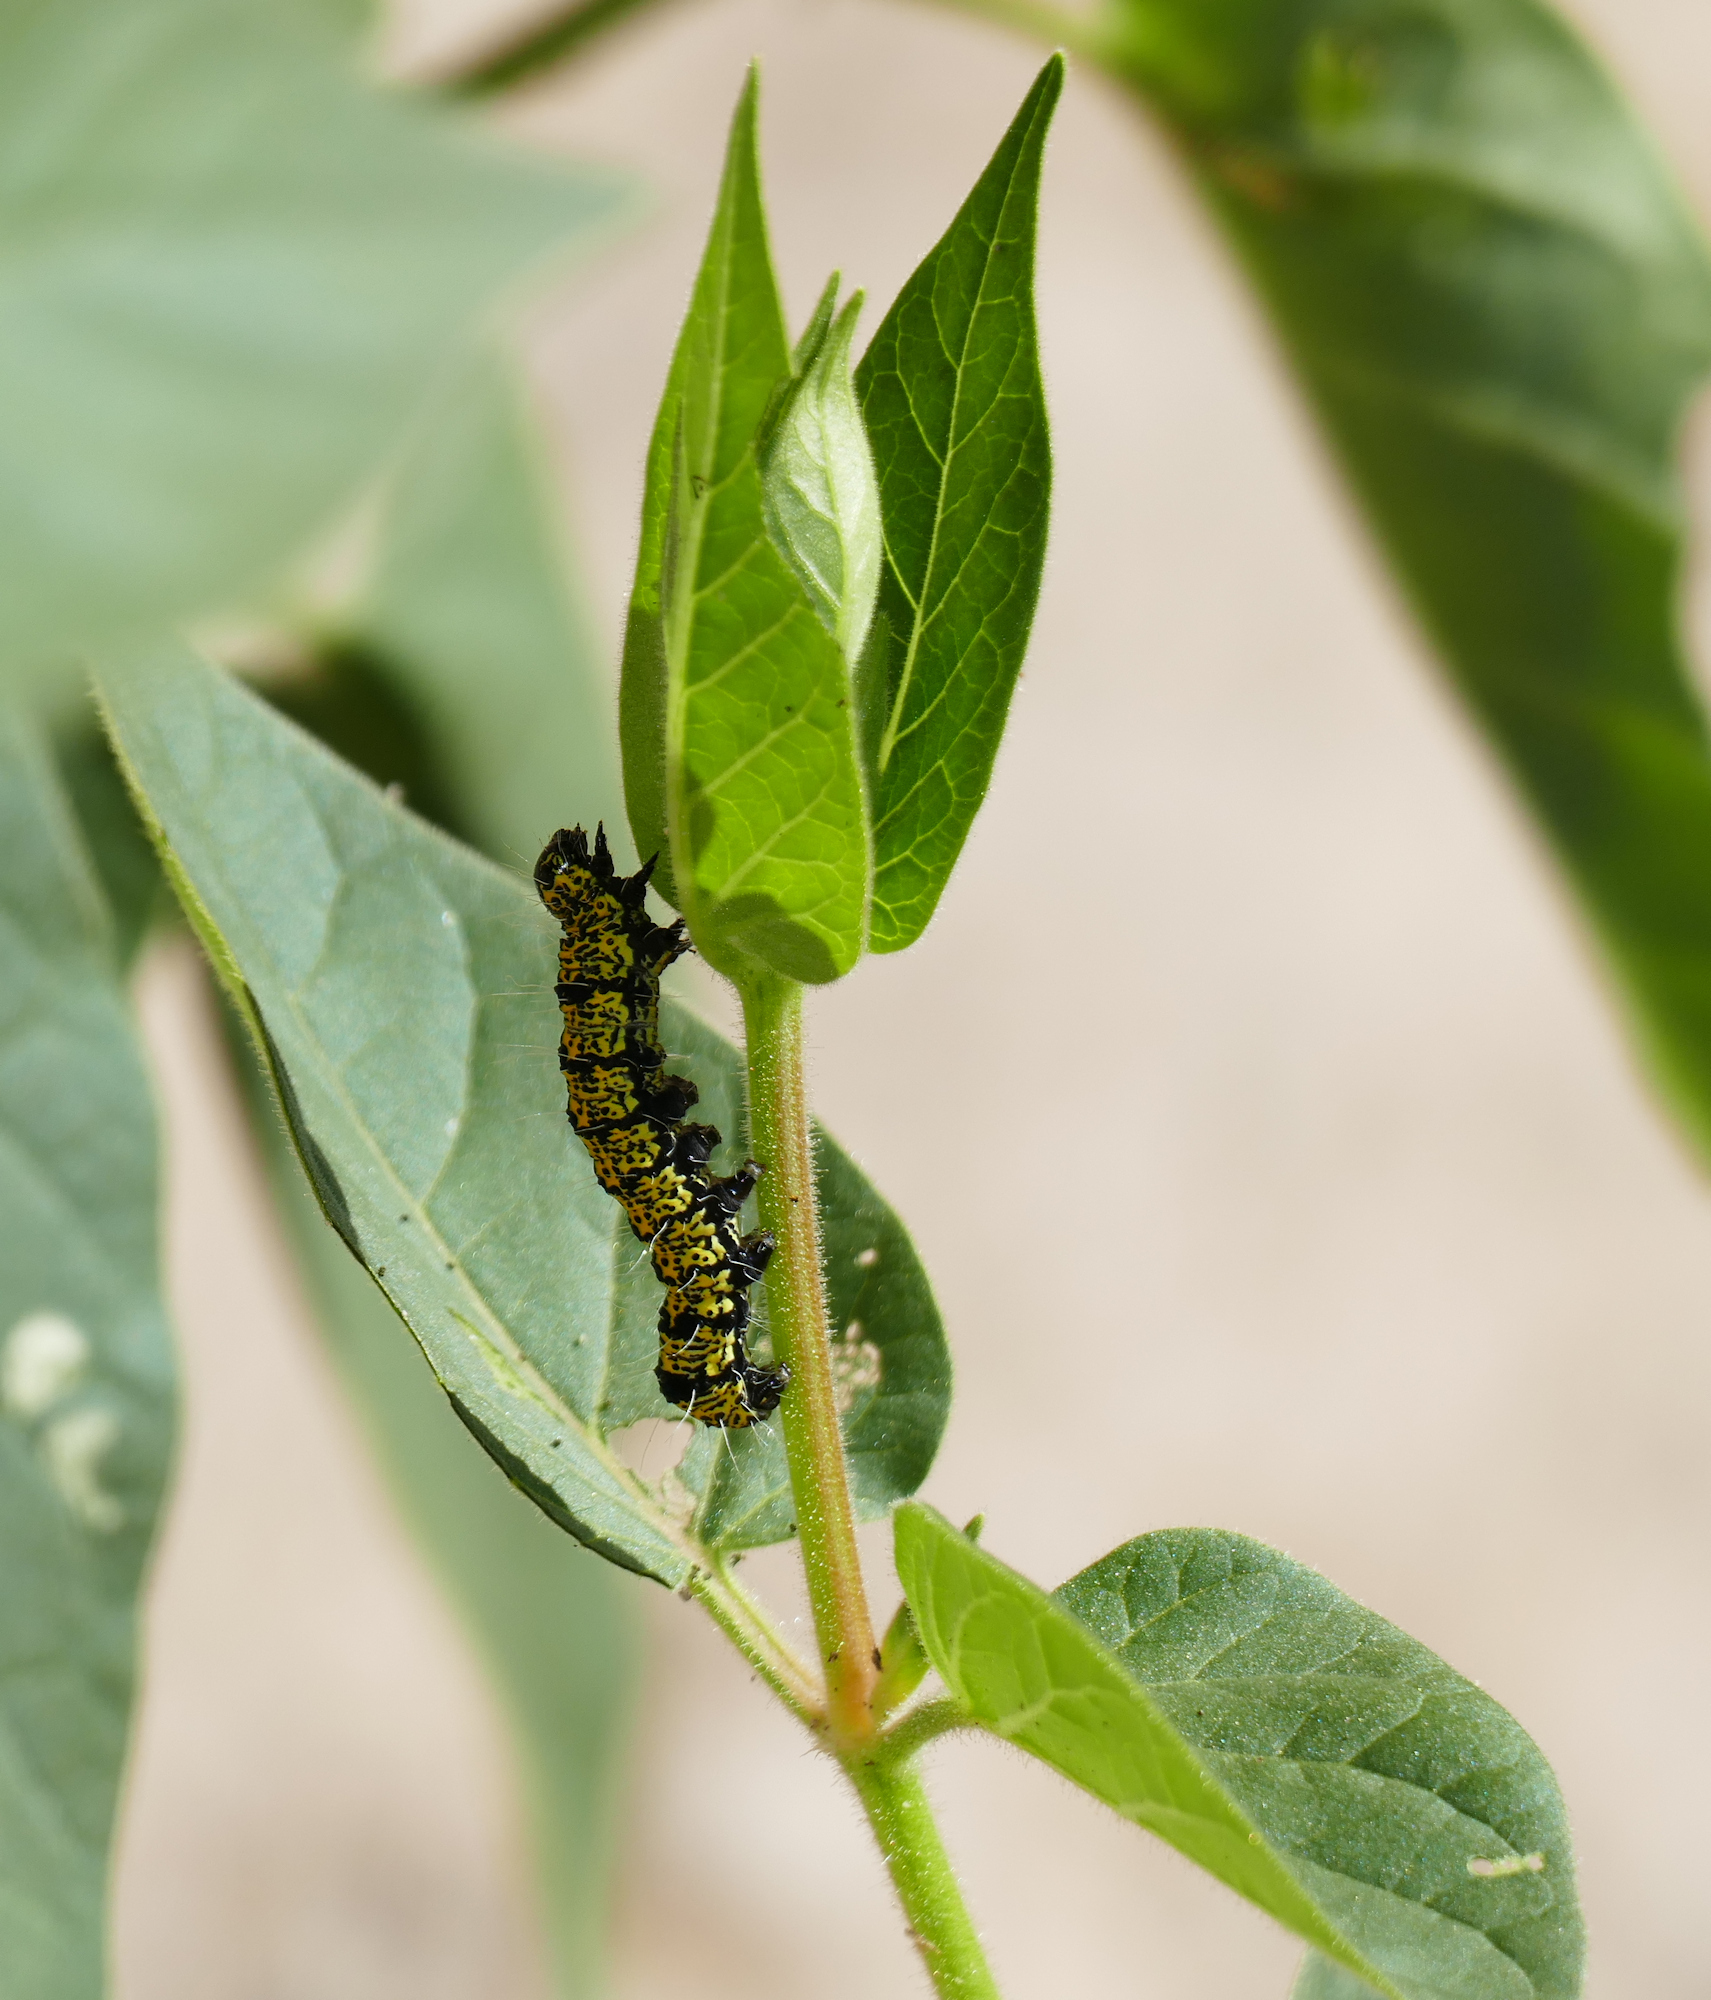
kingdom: Animalia
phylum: Arthropoda
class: Insecta
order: Lepidoptera
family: Noctuidae
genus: Alypiodes
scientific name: Alypiodes bimaculata
